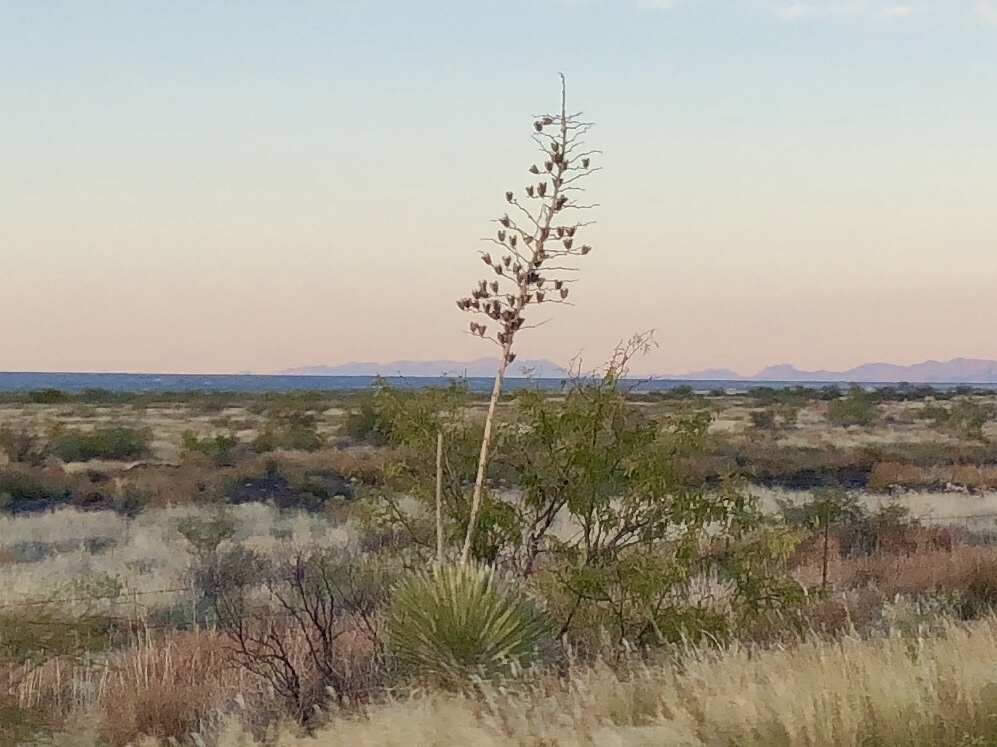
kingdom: Plantae
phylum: Tracheophyta
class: Liliopsida
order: Asparagales
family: Asparagaceae
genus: Yucca
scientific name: Yucca elata
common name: Palmella
